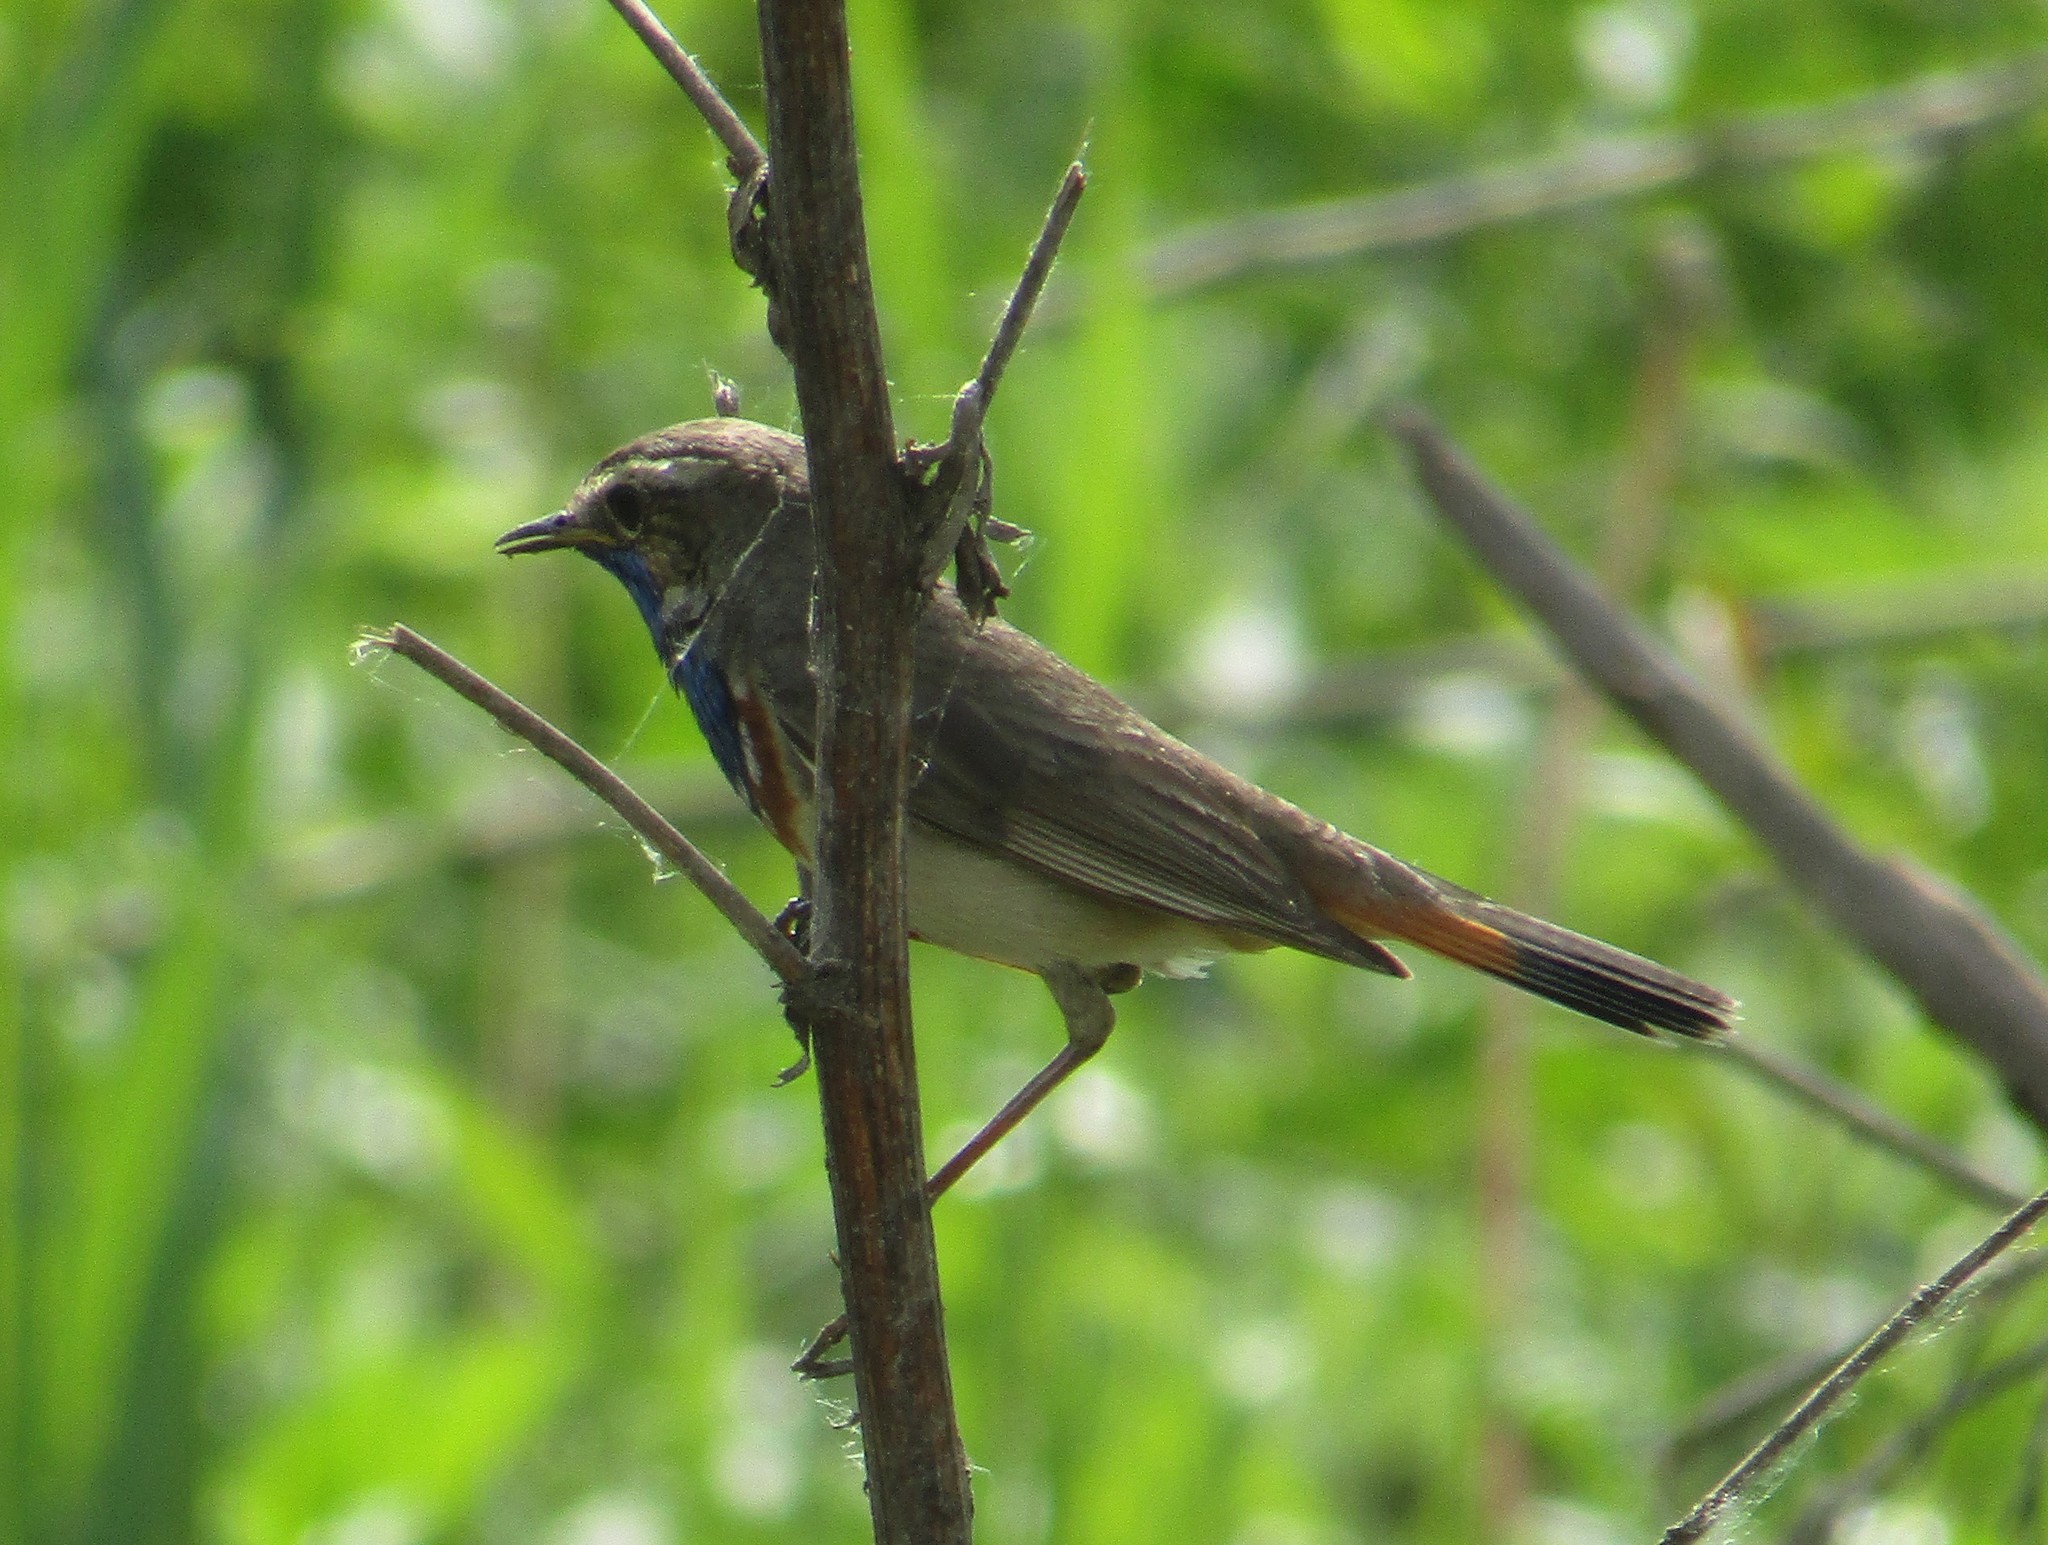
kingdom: Animalia
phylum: Chordata
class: Aves
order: Passeriformes
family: Muscicapidae
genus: Luscinia
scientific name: Luscinia svecica
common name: Bluethroat
